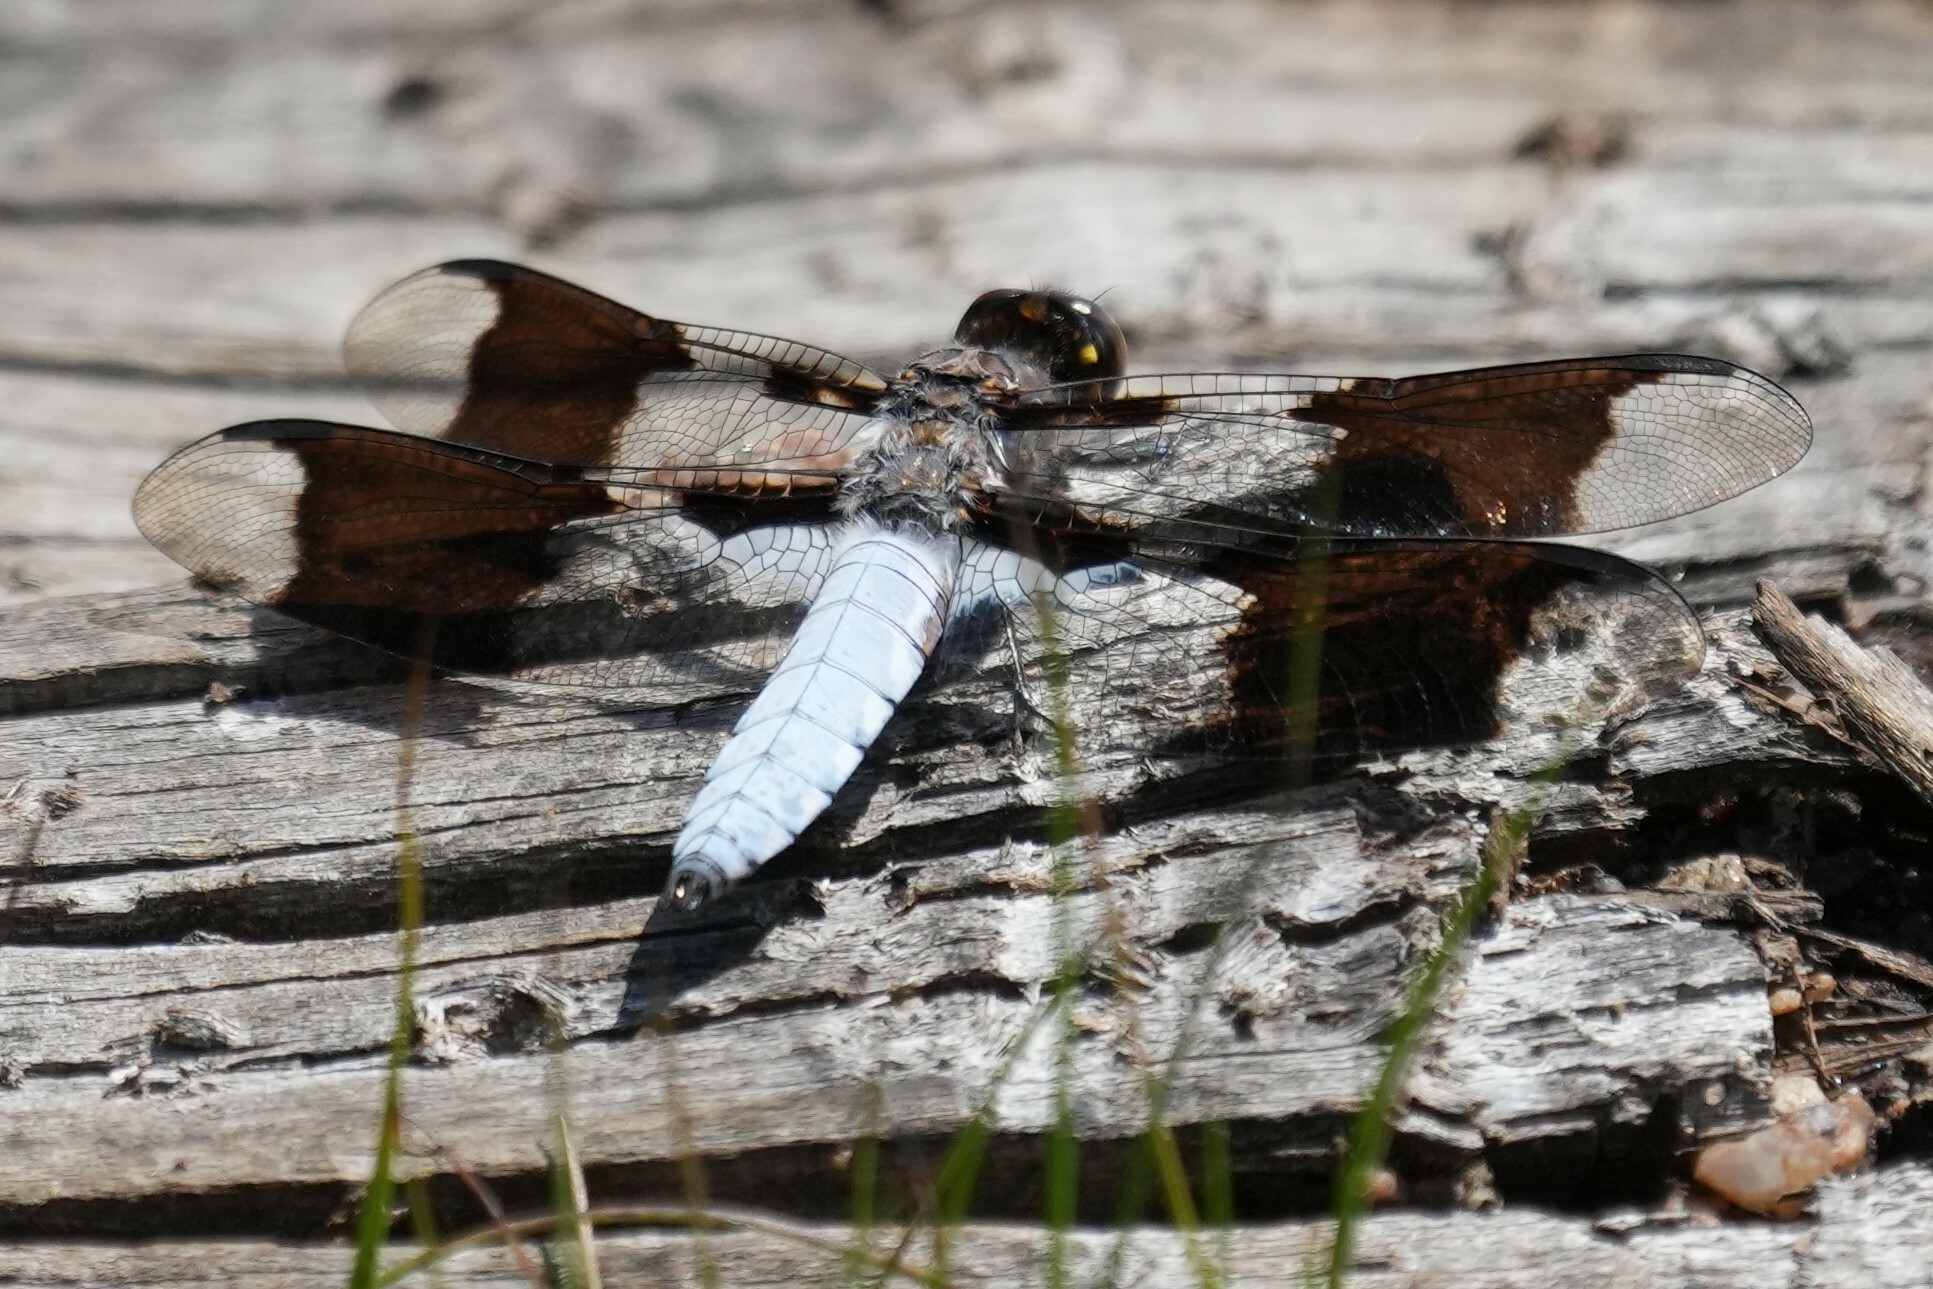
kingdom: Animalia
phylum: Arthropoda
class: Insecta
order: Odonata
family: Libellulidae
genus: Plathemis
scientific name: Plathemis lydia
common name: Common whitetail
